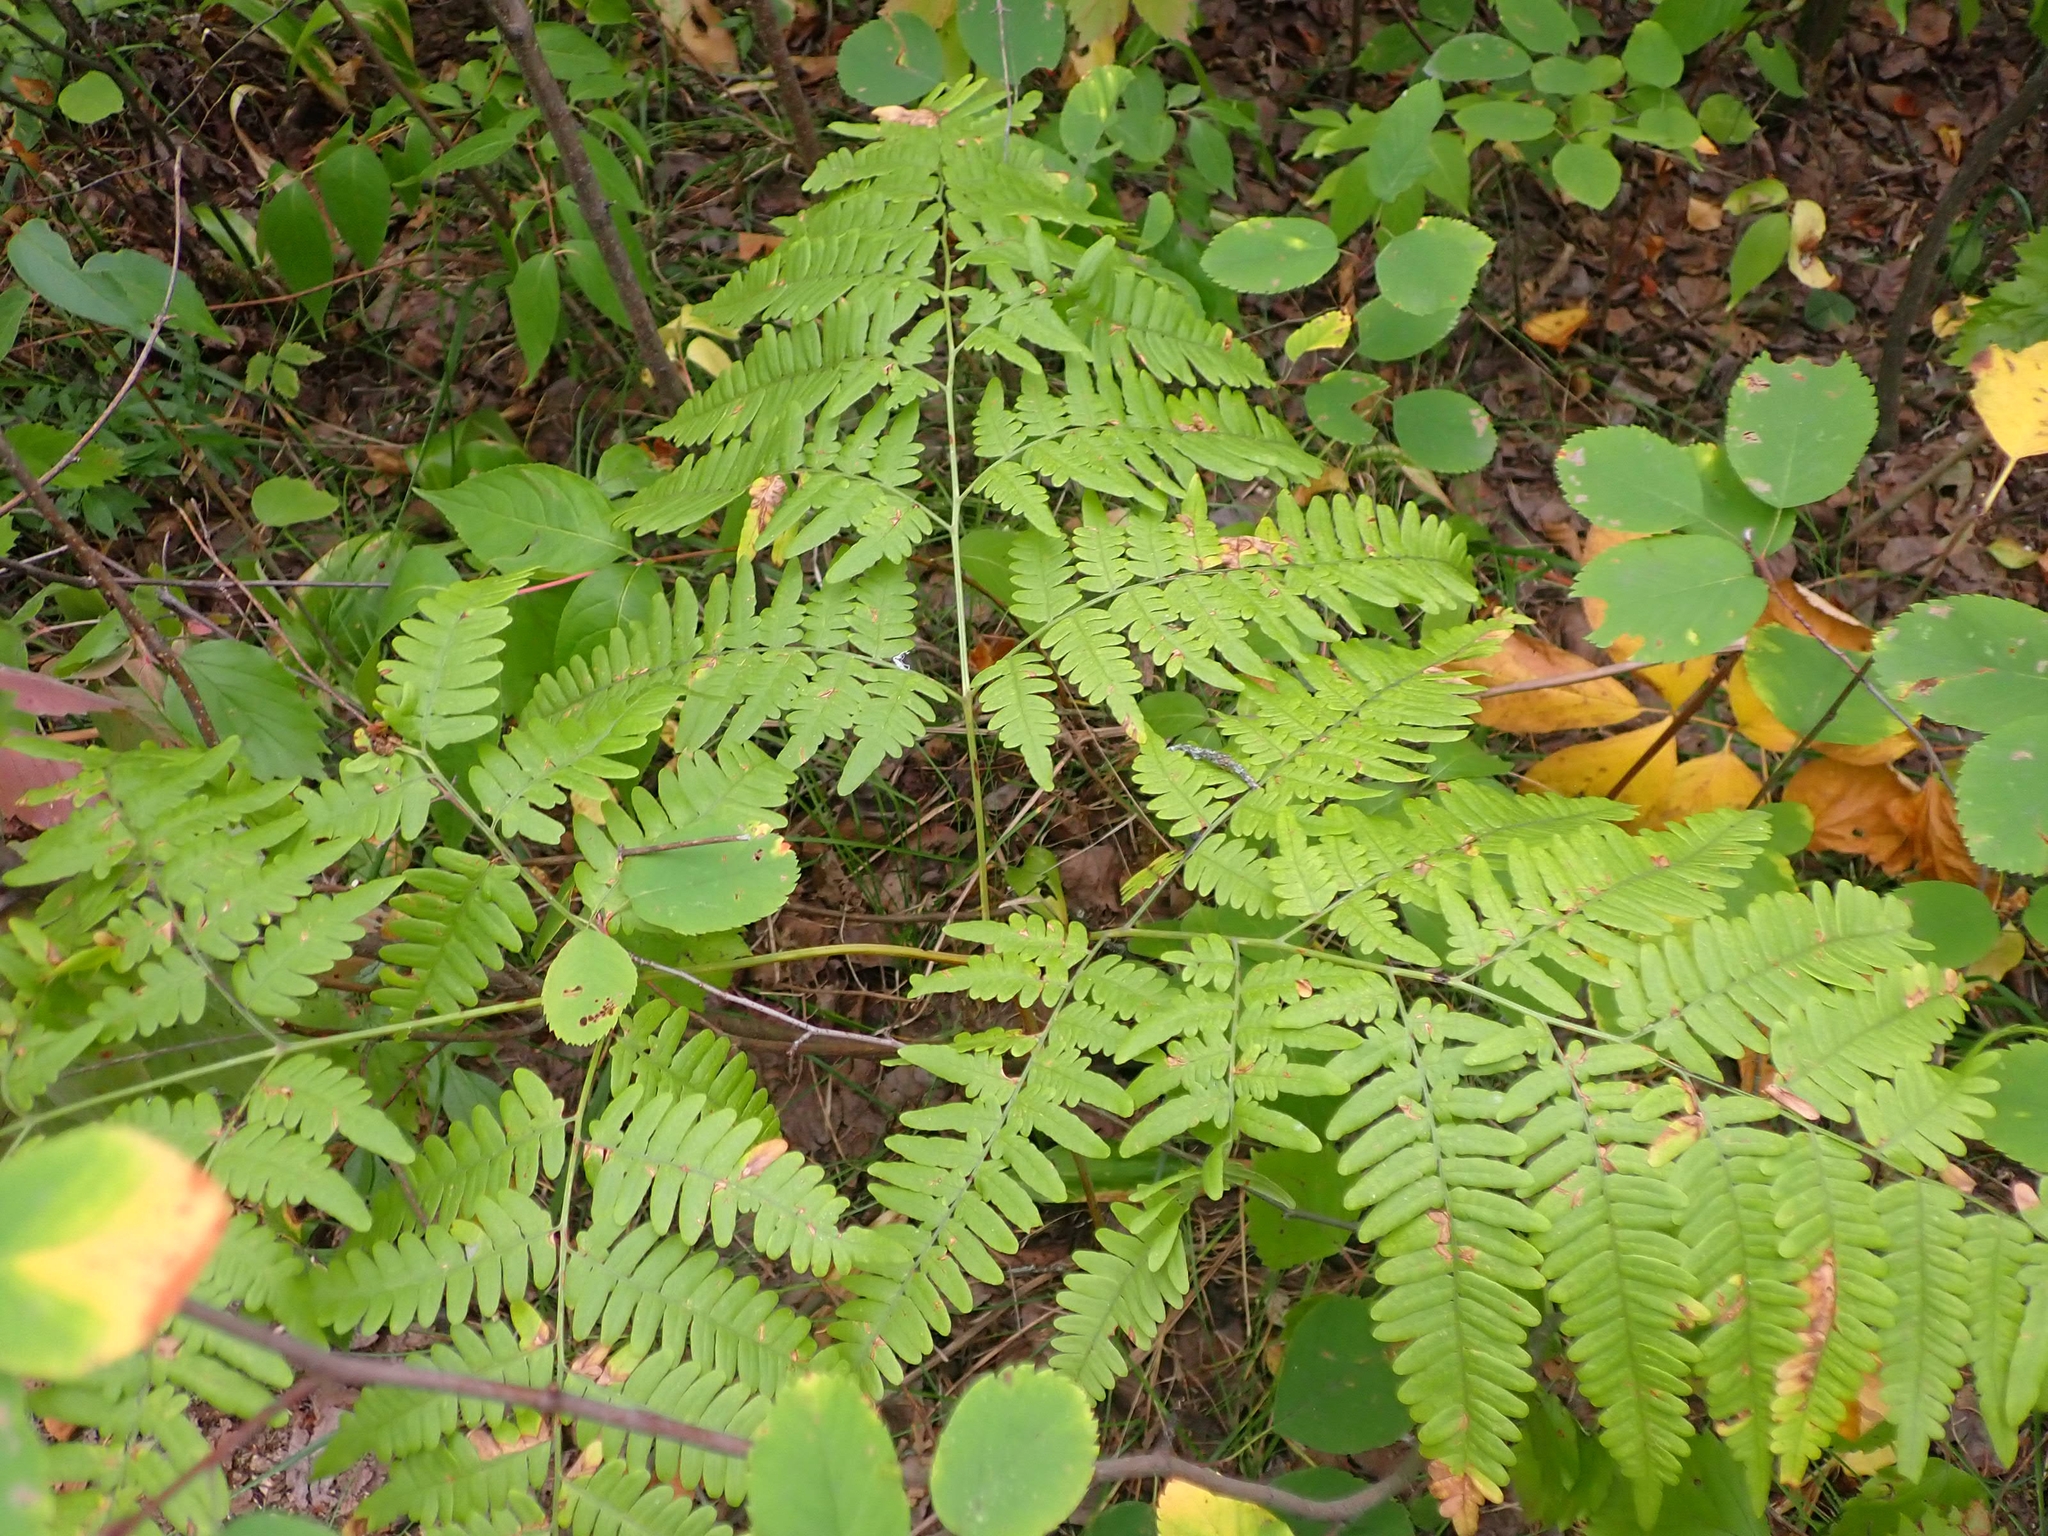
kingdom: Plantae
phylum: Tracheophyta
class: Polypodiopsida
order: Polypodiales
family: Dennstaedtiaceae
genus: Pteridium
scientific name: Pteridium aquilinum
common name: Bracken
